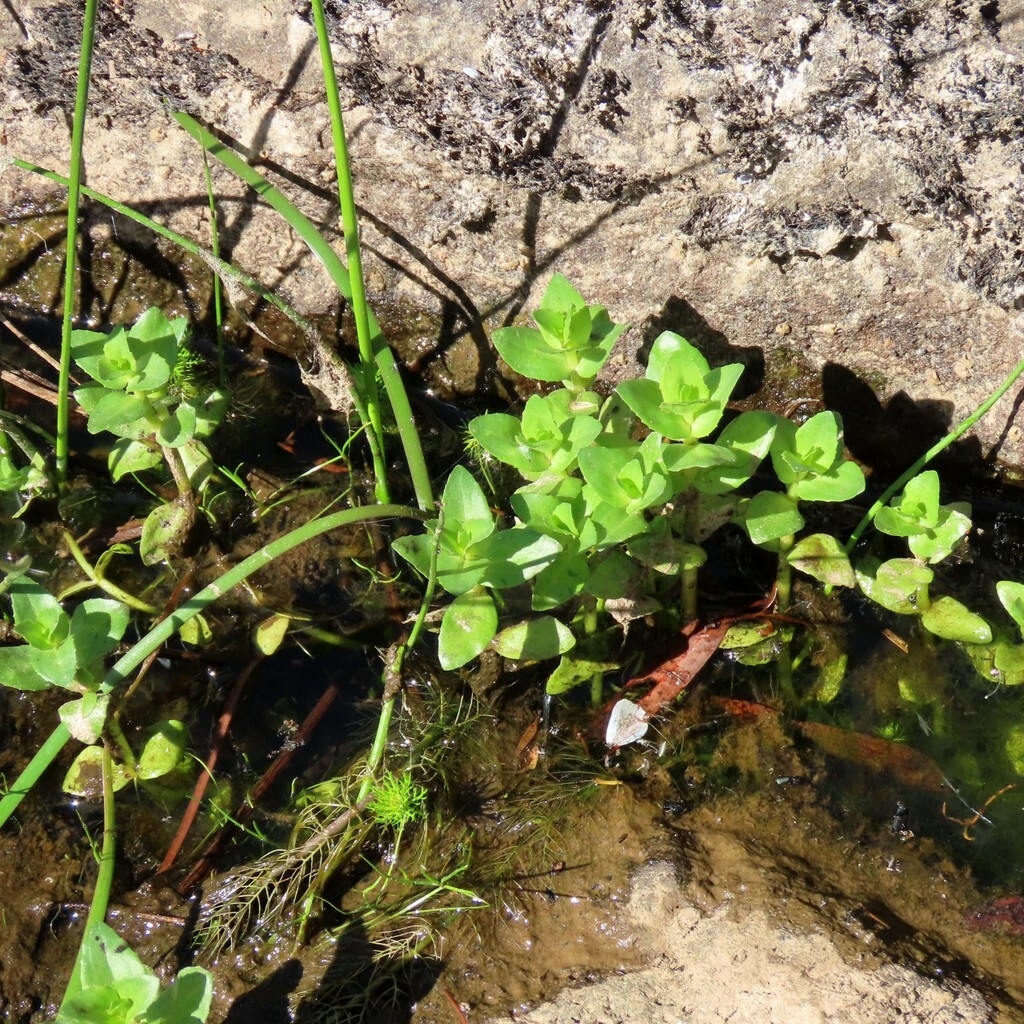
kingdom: Plantae
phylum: Tracheophyta
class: Magnoliopsida
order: Lamiales
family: Plantaginaceae
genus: Gratiola
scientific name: Gratiola peruviana
